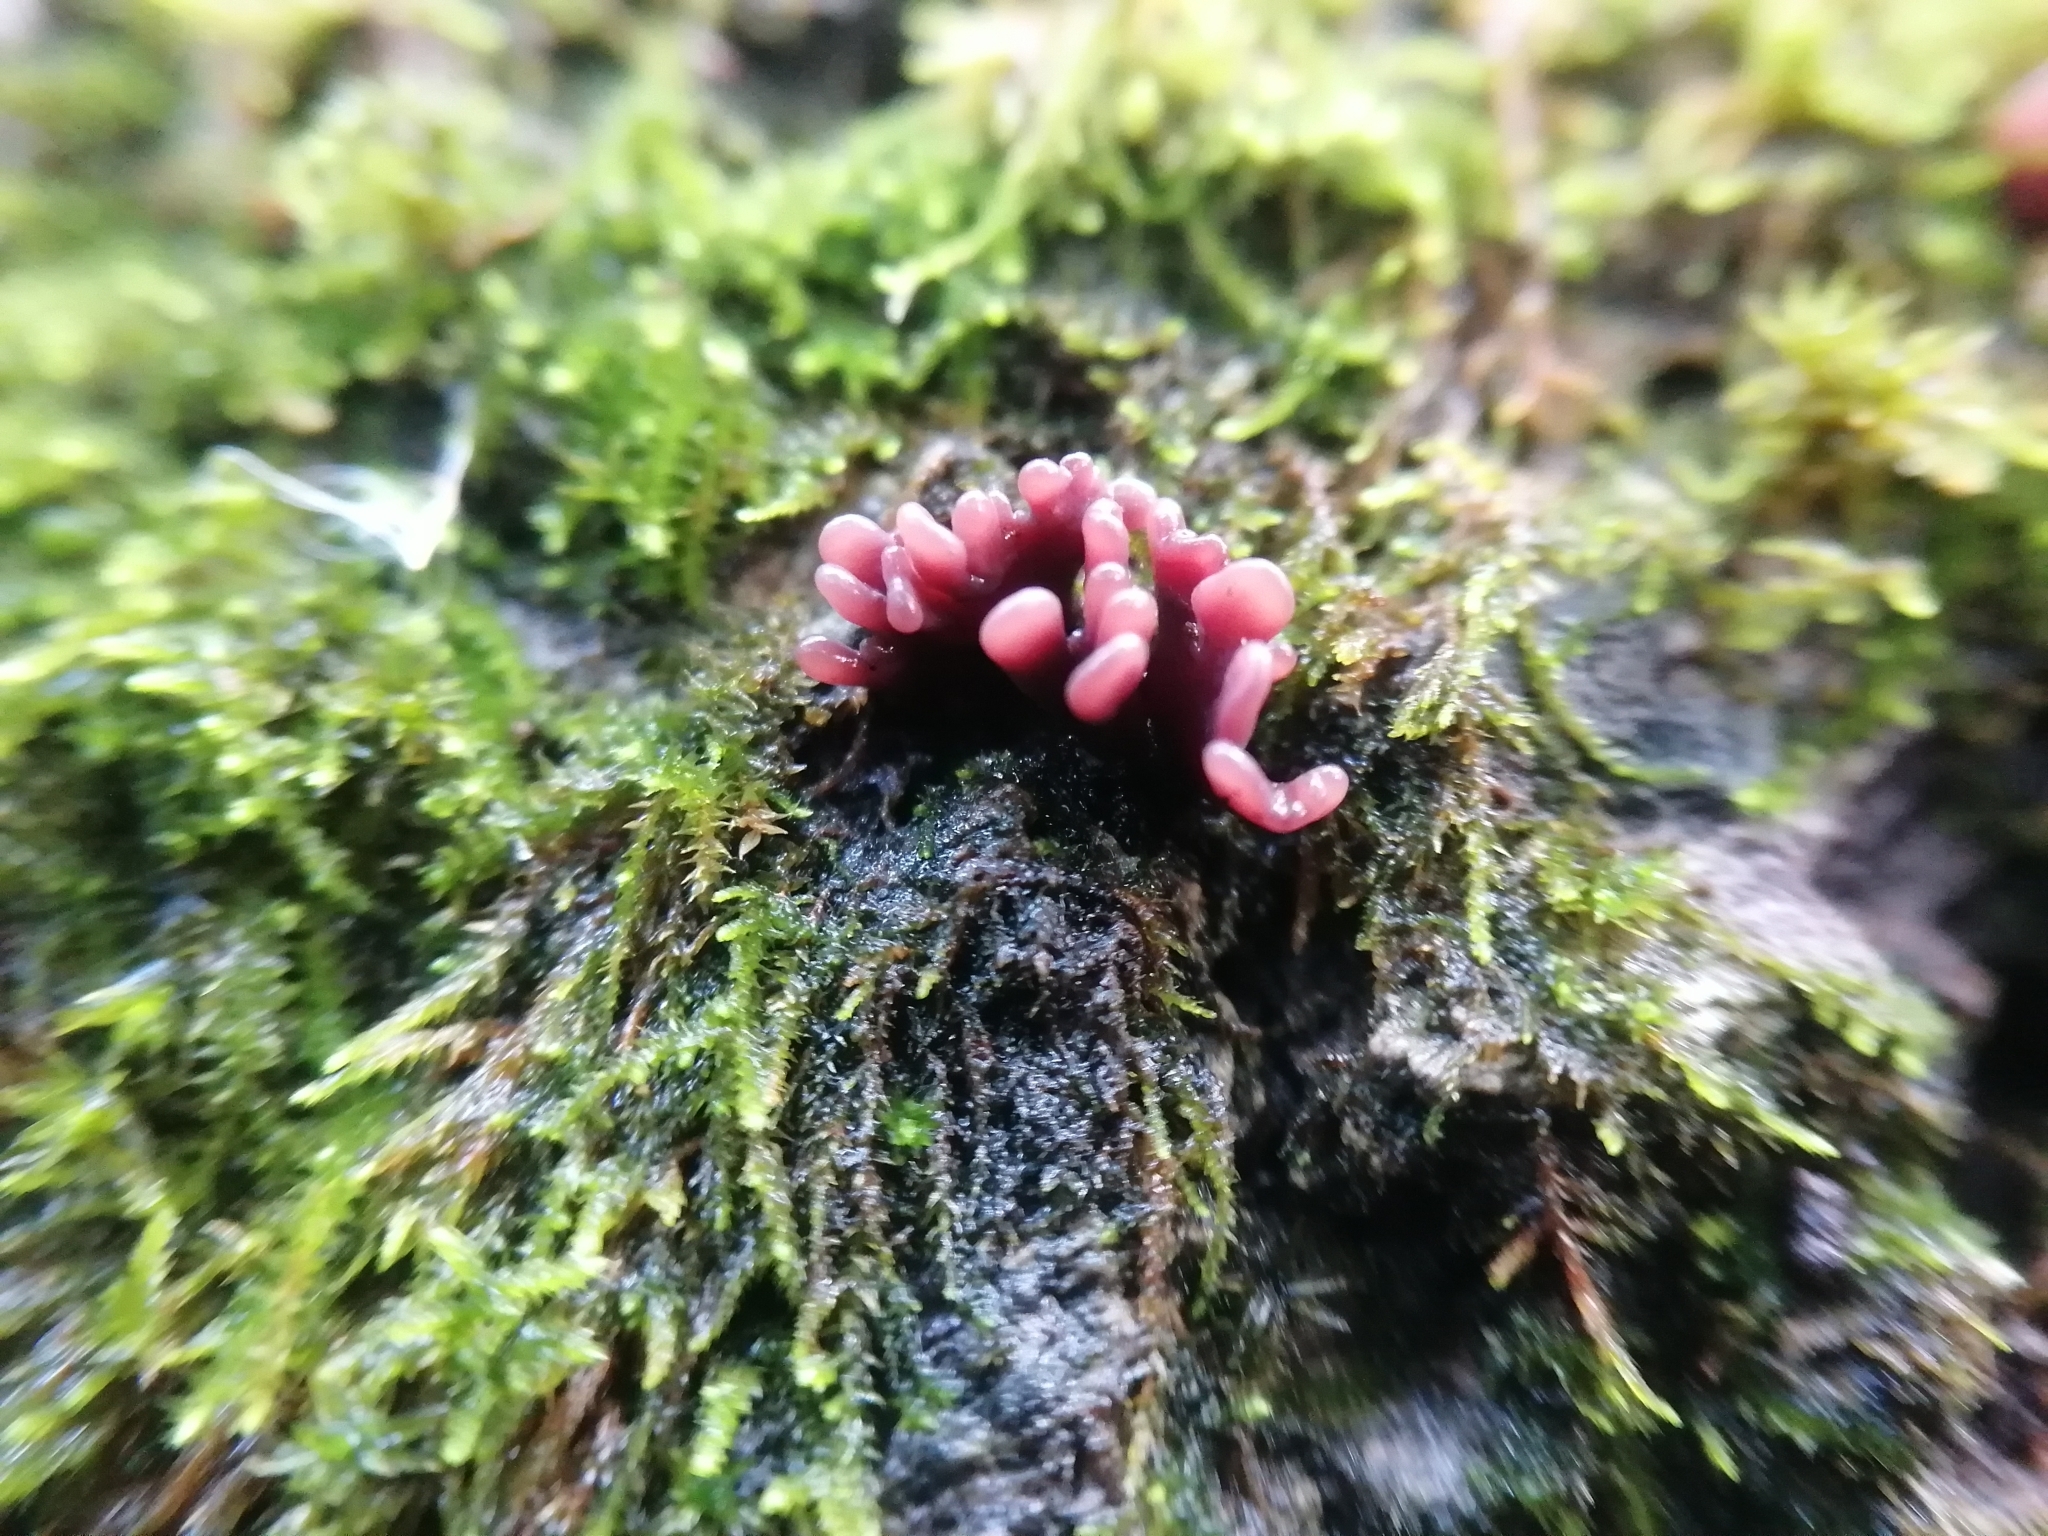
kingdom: Fungi
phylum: Ascomycota
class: Leotiomycetes
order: Helotiales
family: Gelatinodiscaceae
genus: Ascocoryne
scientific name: Ascocoryne sarcoides
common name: Purple jellydisc
